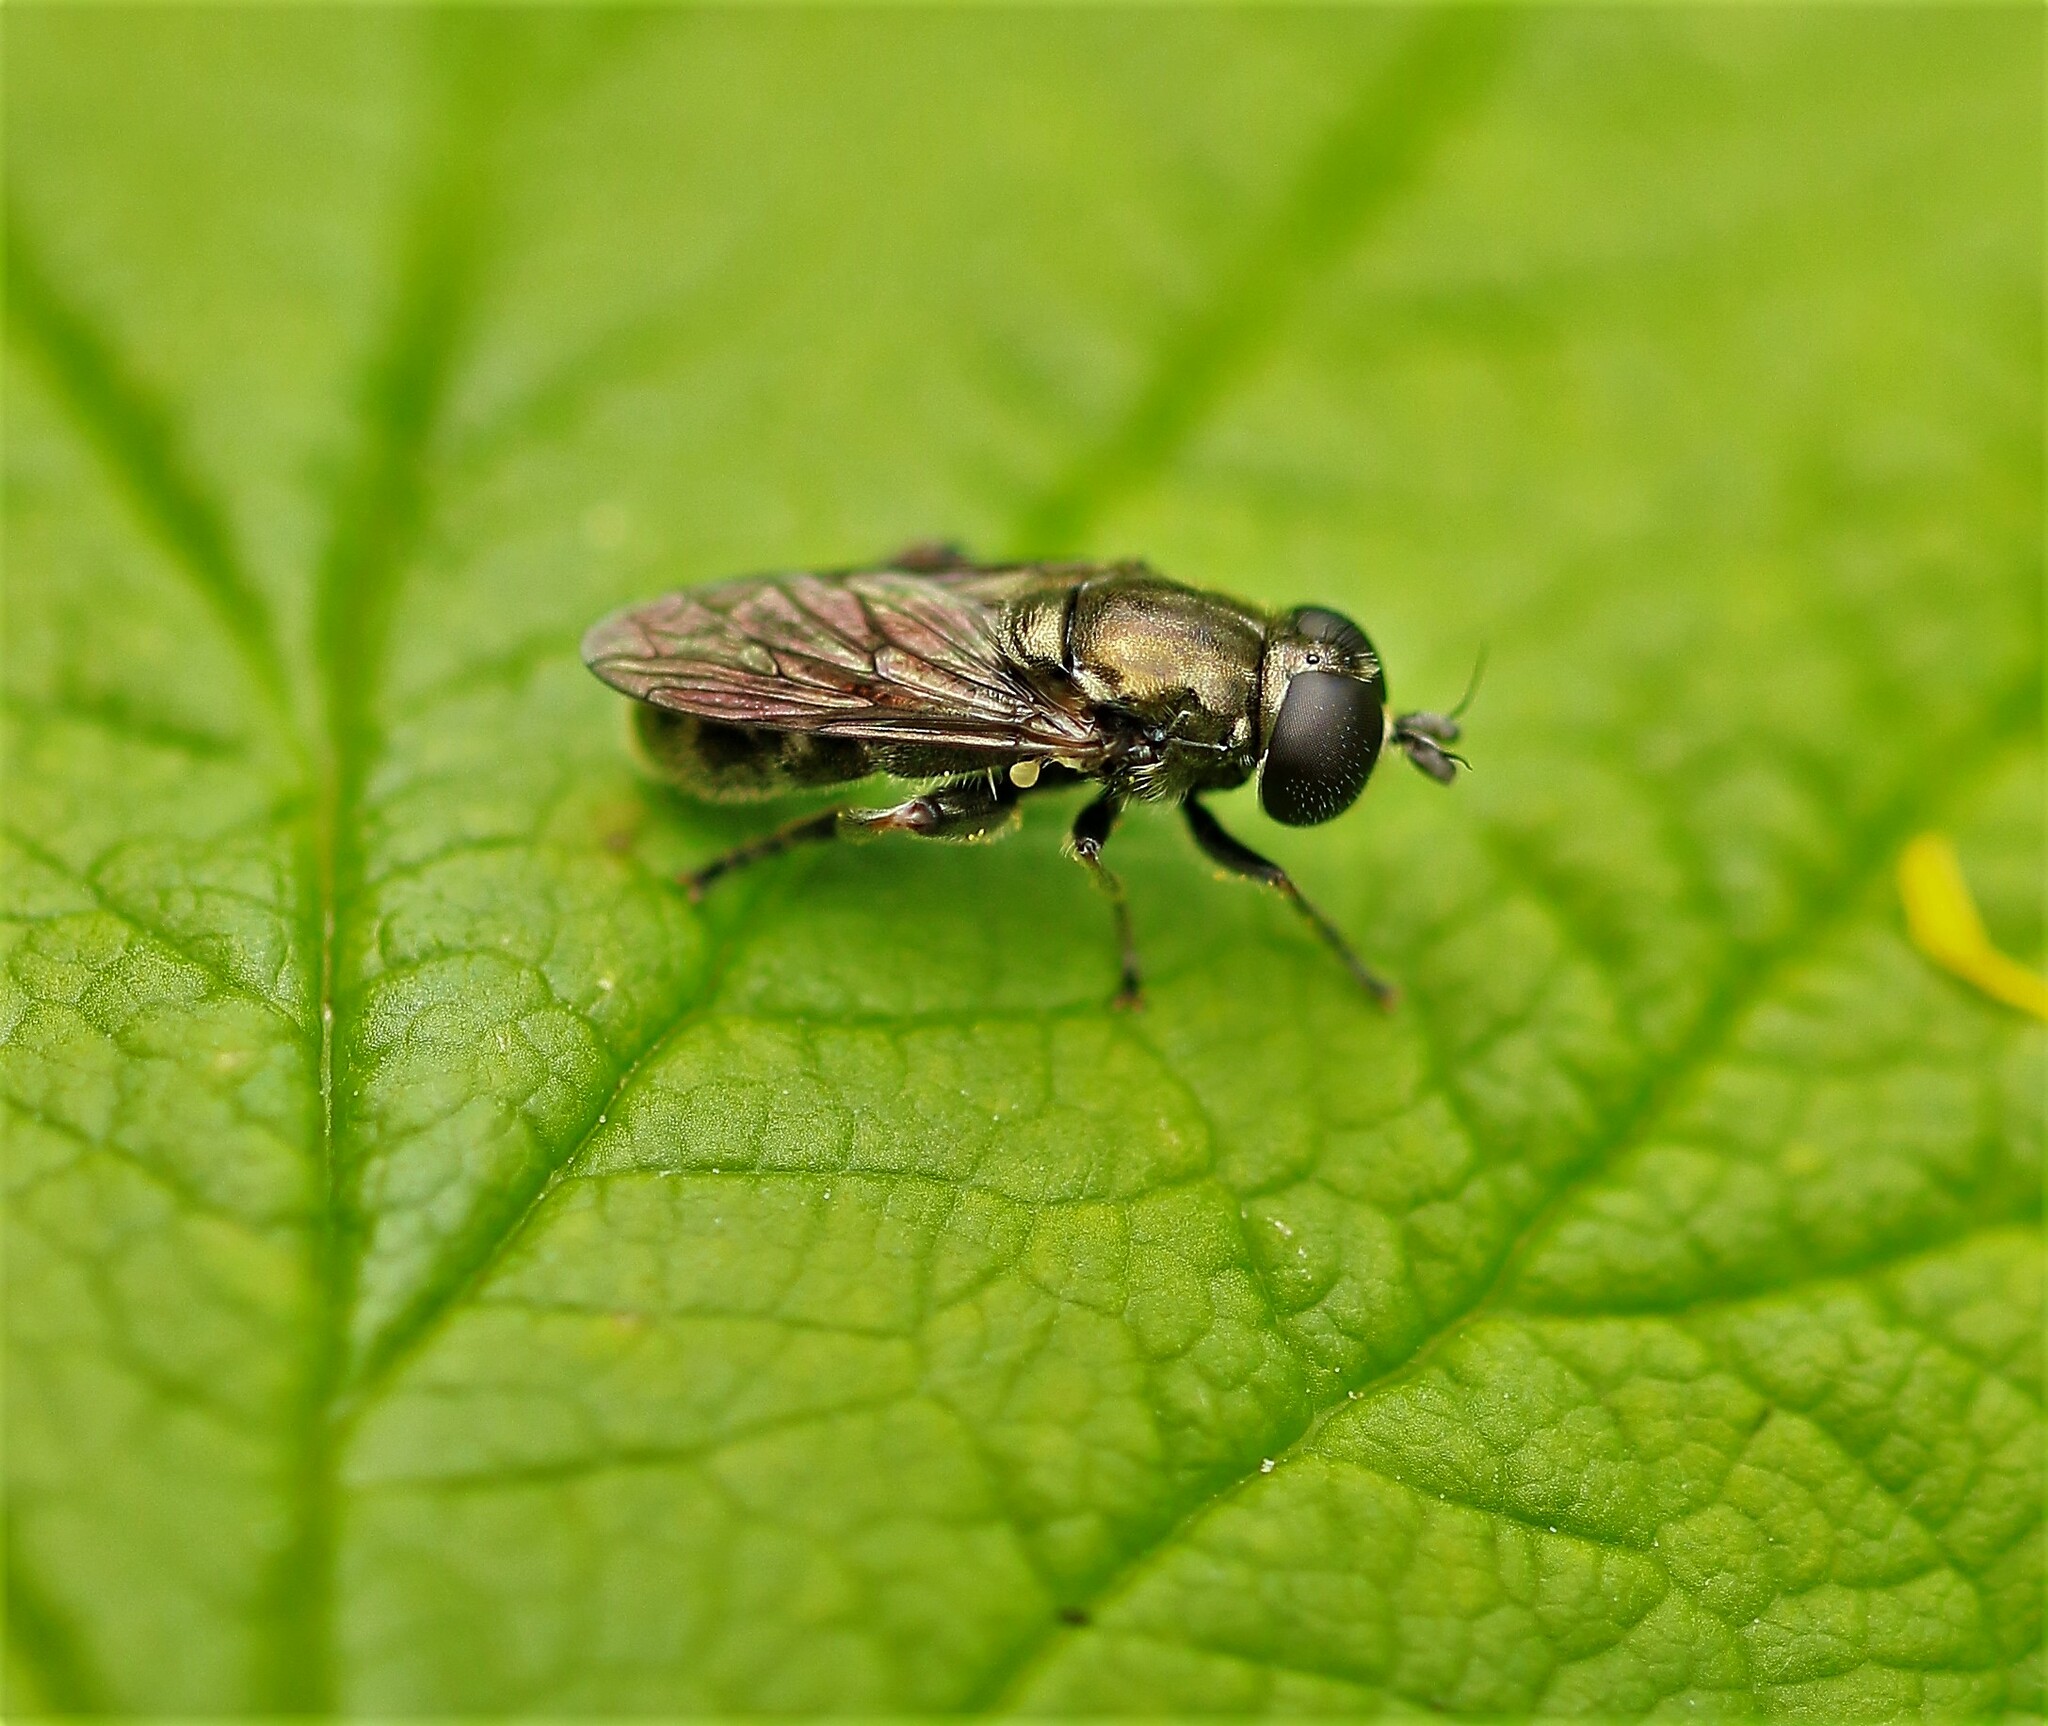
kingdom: Animalia
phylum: Arthropoda
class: Insecta
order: Diptera
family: Syrphidae
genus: Eumerus
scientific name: Eumerus
